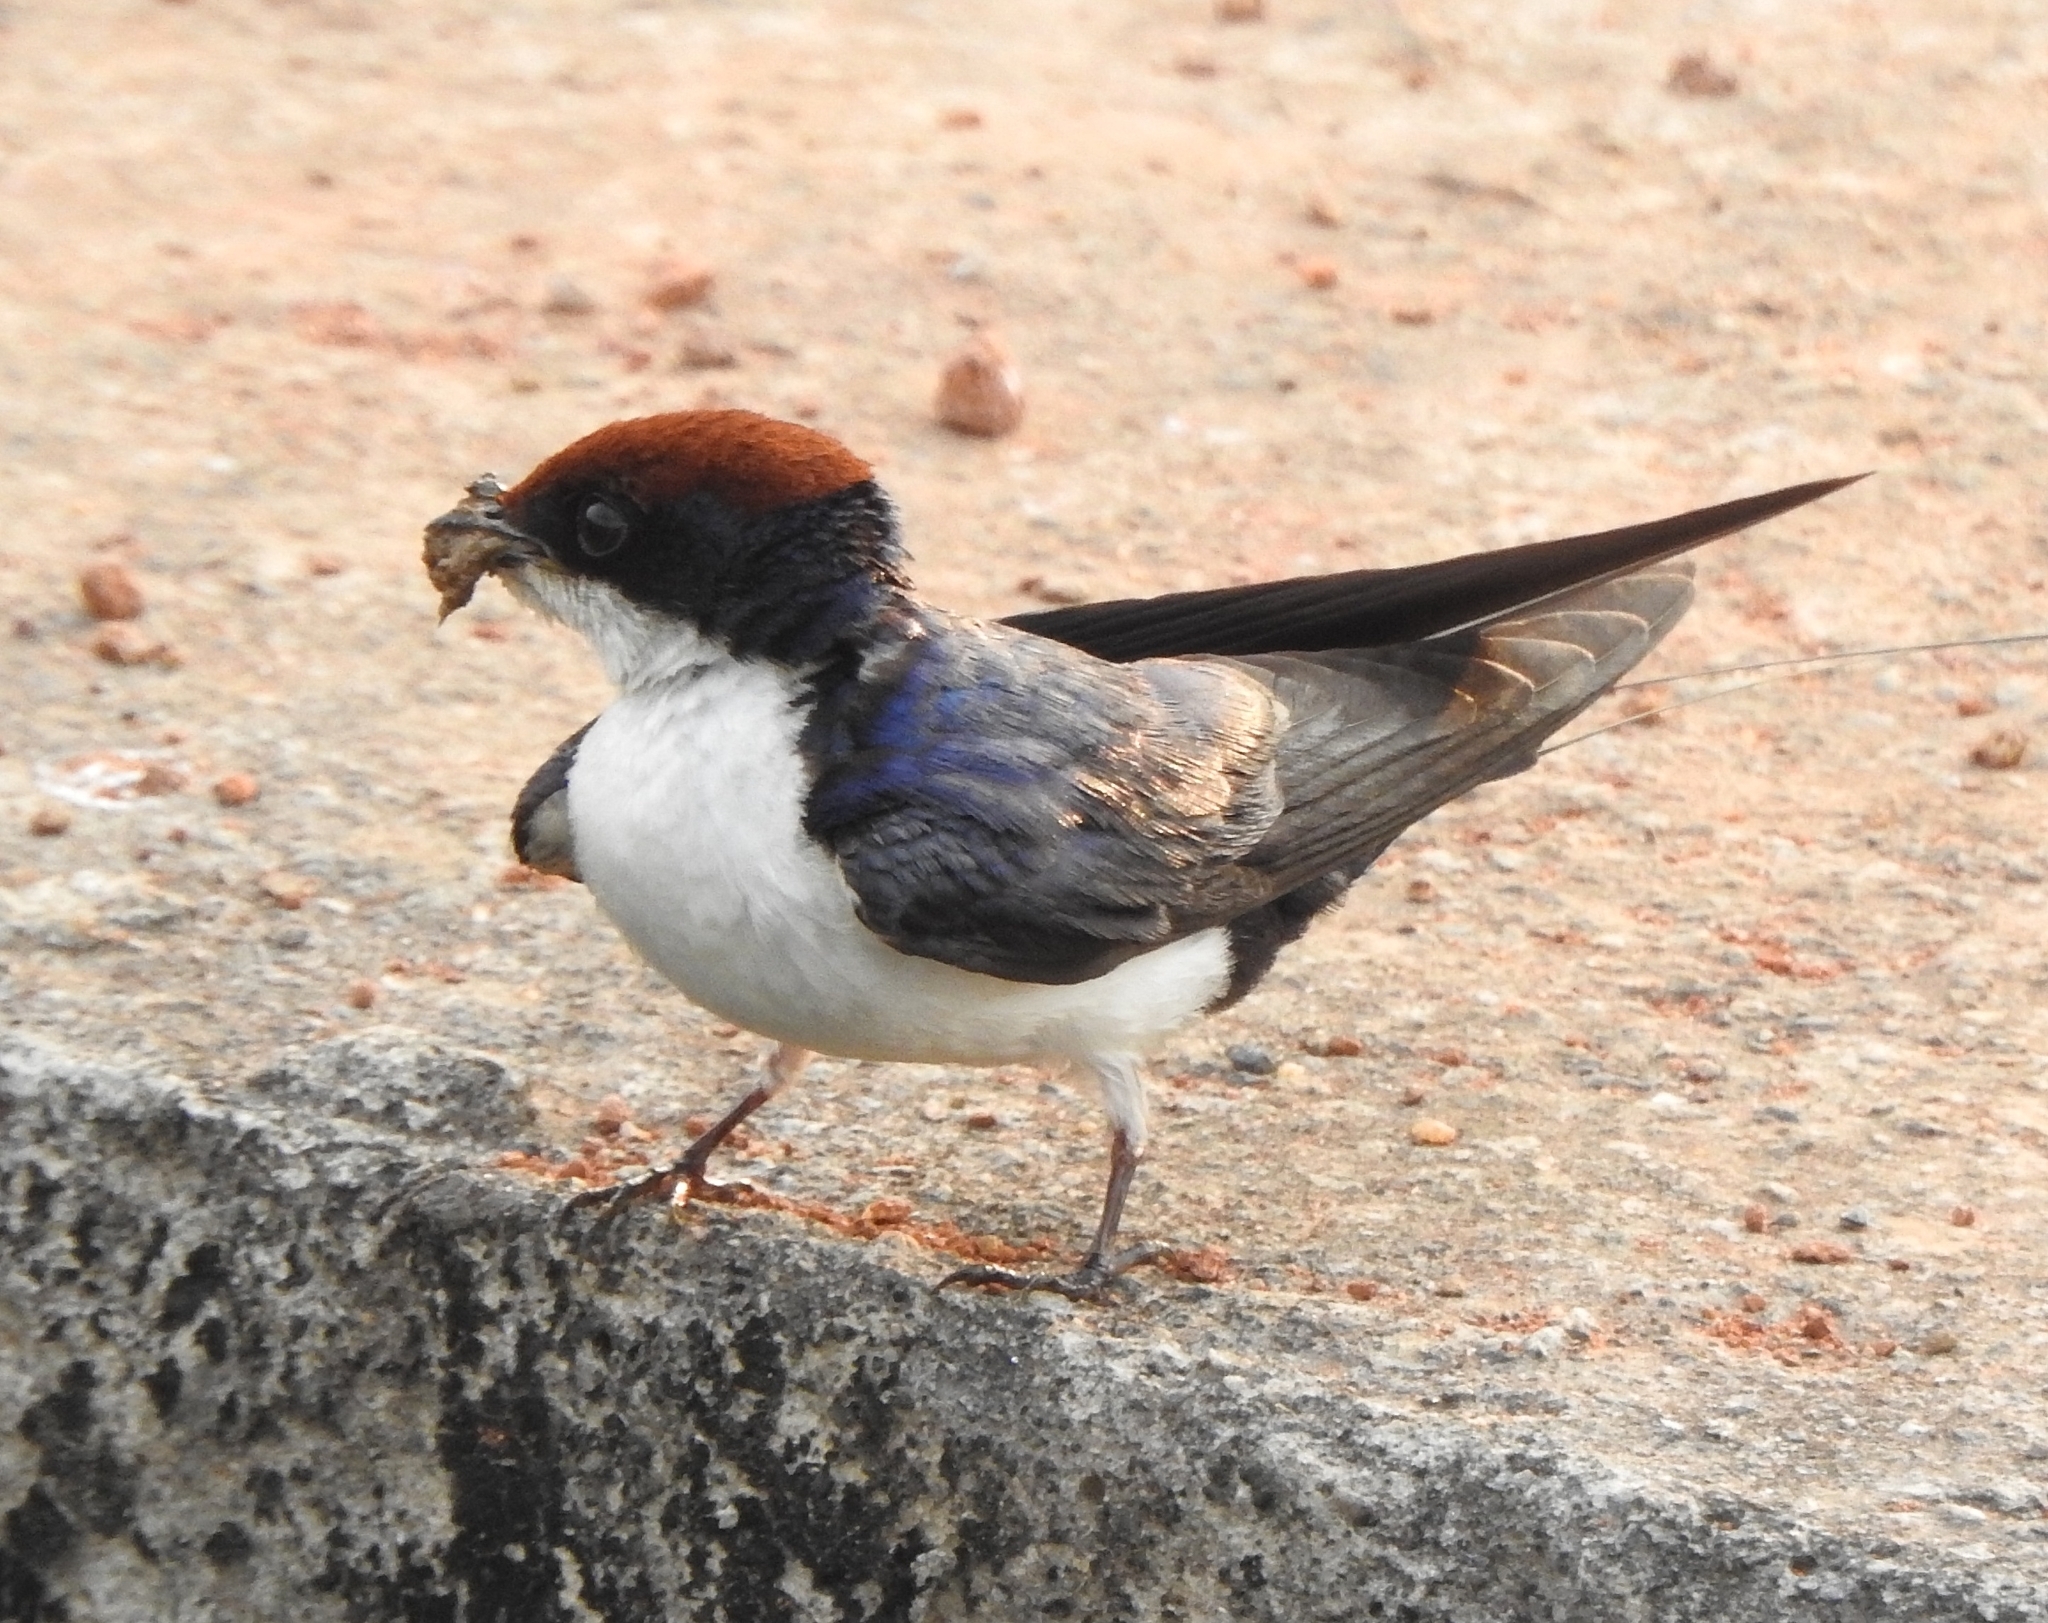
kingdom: Animalia
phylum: Chordata
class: Aves
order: Passeriformes
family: Hirundinidae
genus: Hirundo
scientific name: Hirundo smithii
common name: Wire-tailed swallow
